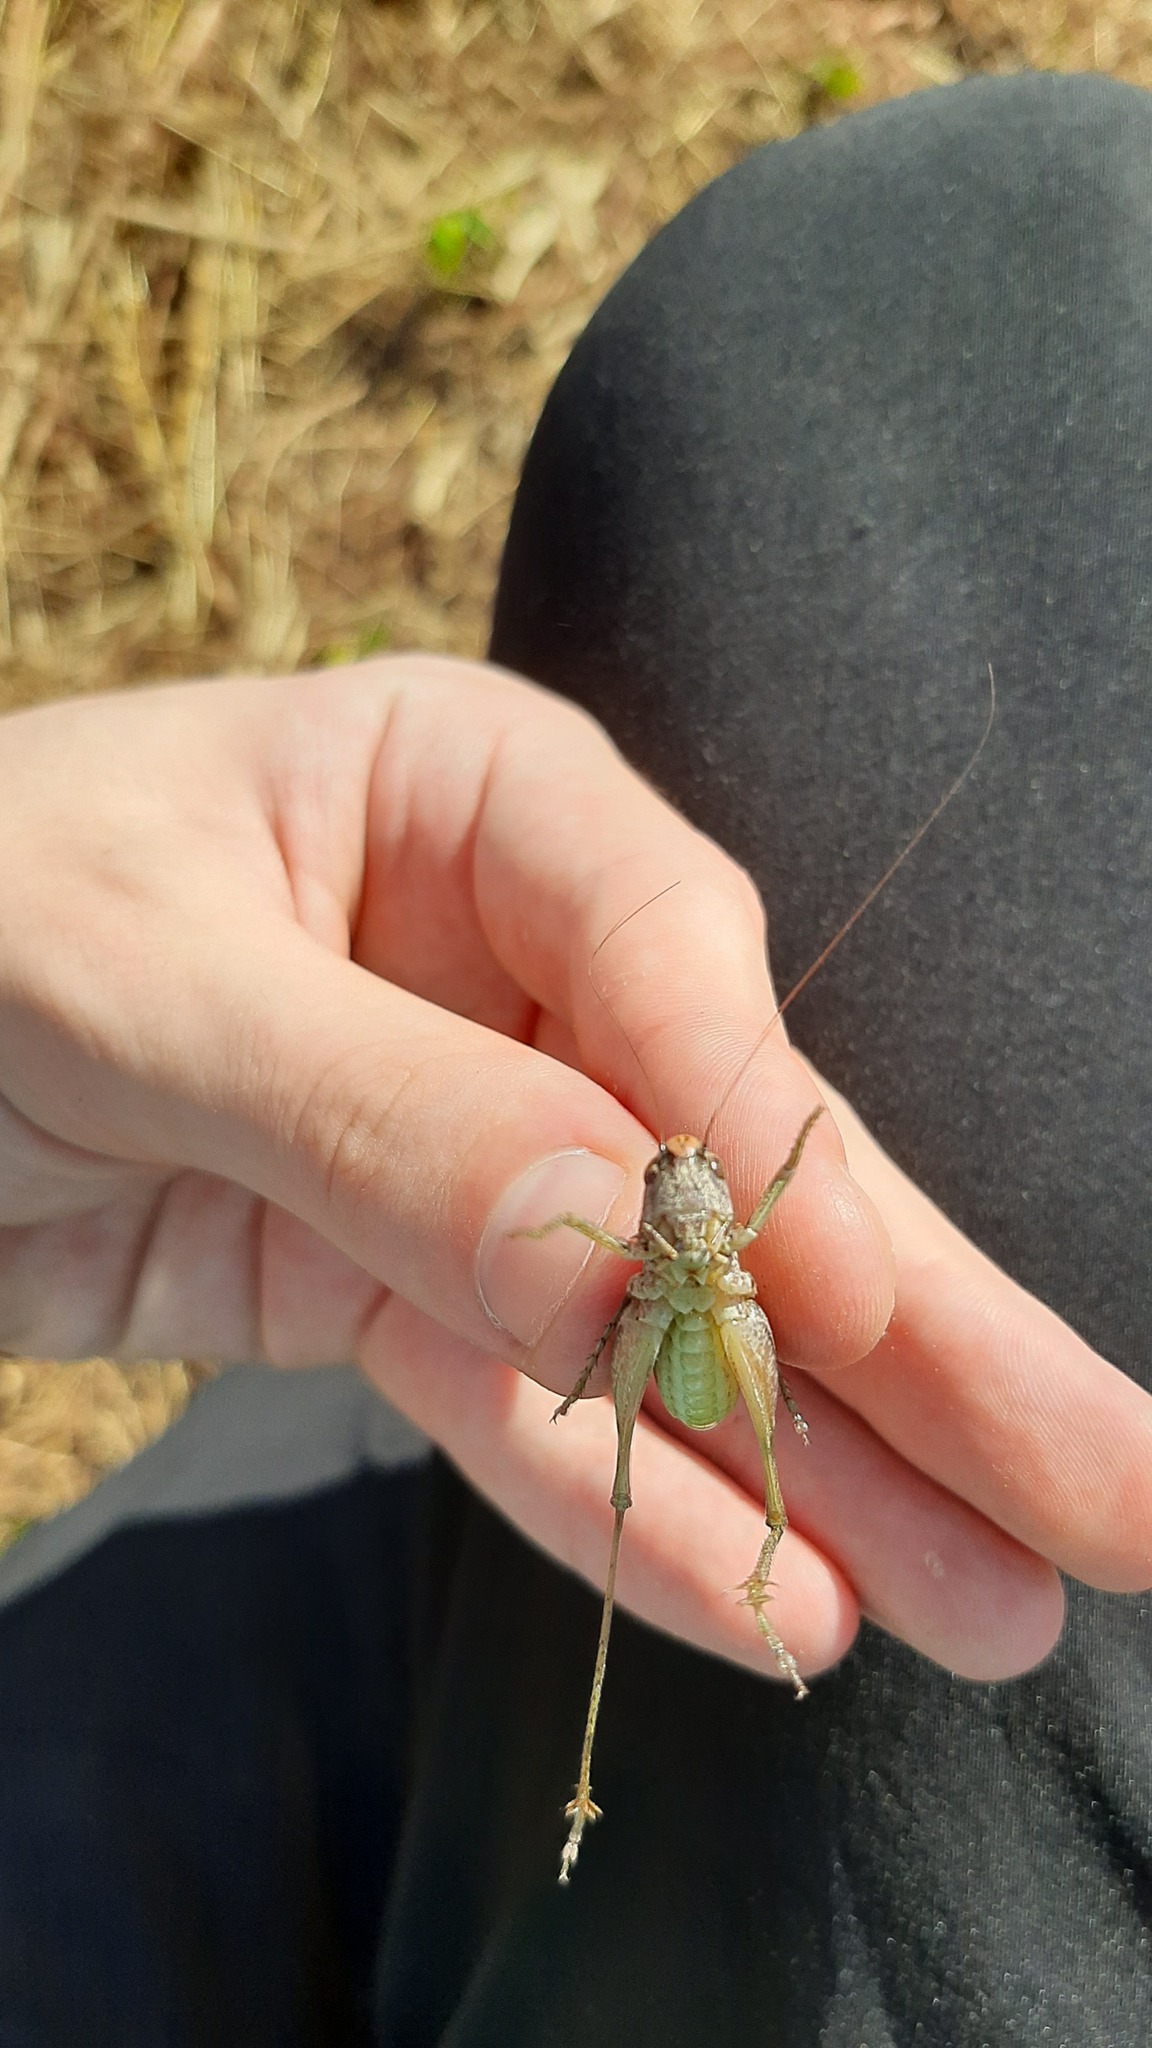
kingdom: Animalia
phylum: Arthropoda
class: Insecta
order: Orthoptera
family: Tettigoniidae
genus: Platycleis
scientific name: Platycleis grisea
